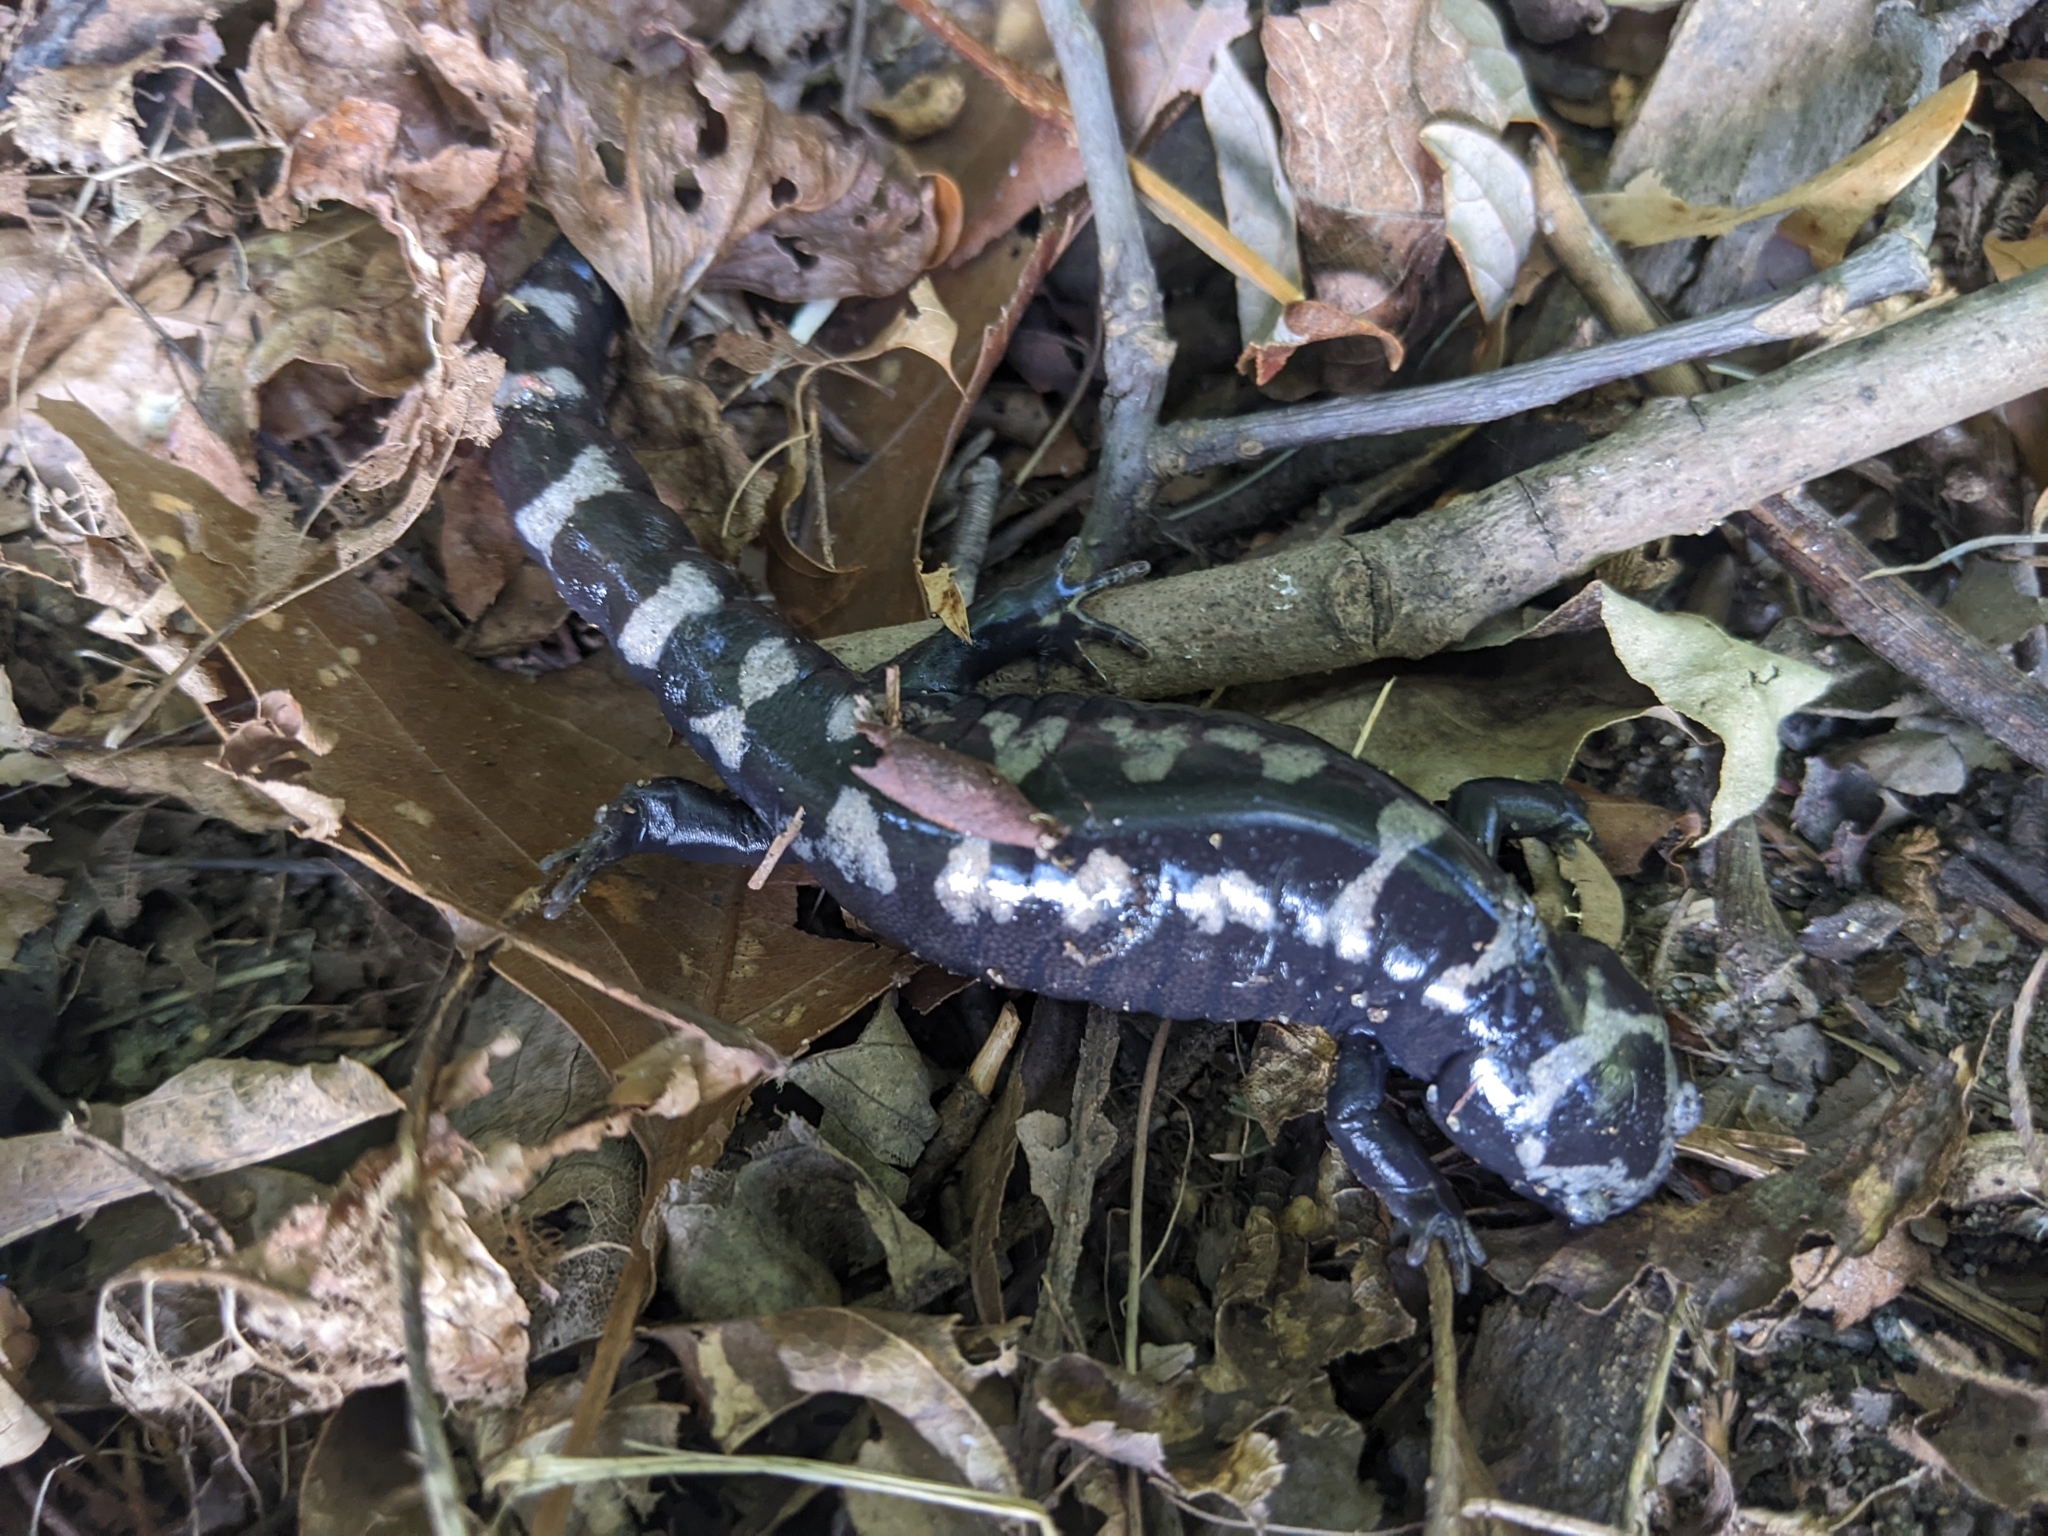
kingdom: Animalia
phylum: Chordata
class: Amphibia
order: Caudata
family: Ambystomatidae
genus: Ambystoma
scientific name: Ambystoma opacum
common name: Marbled salamander
